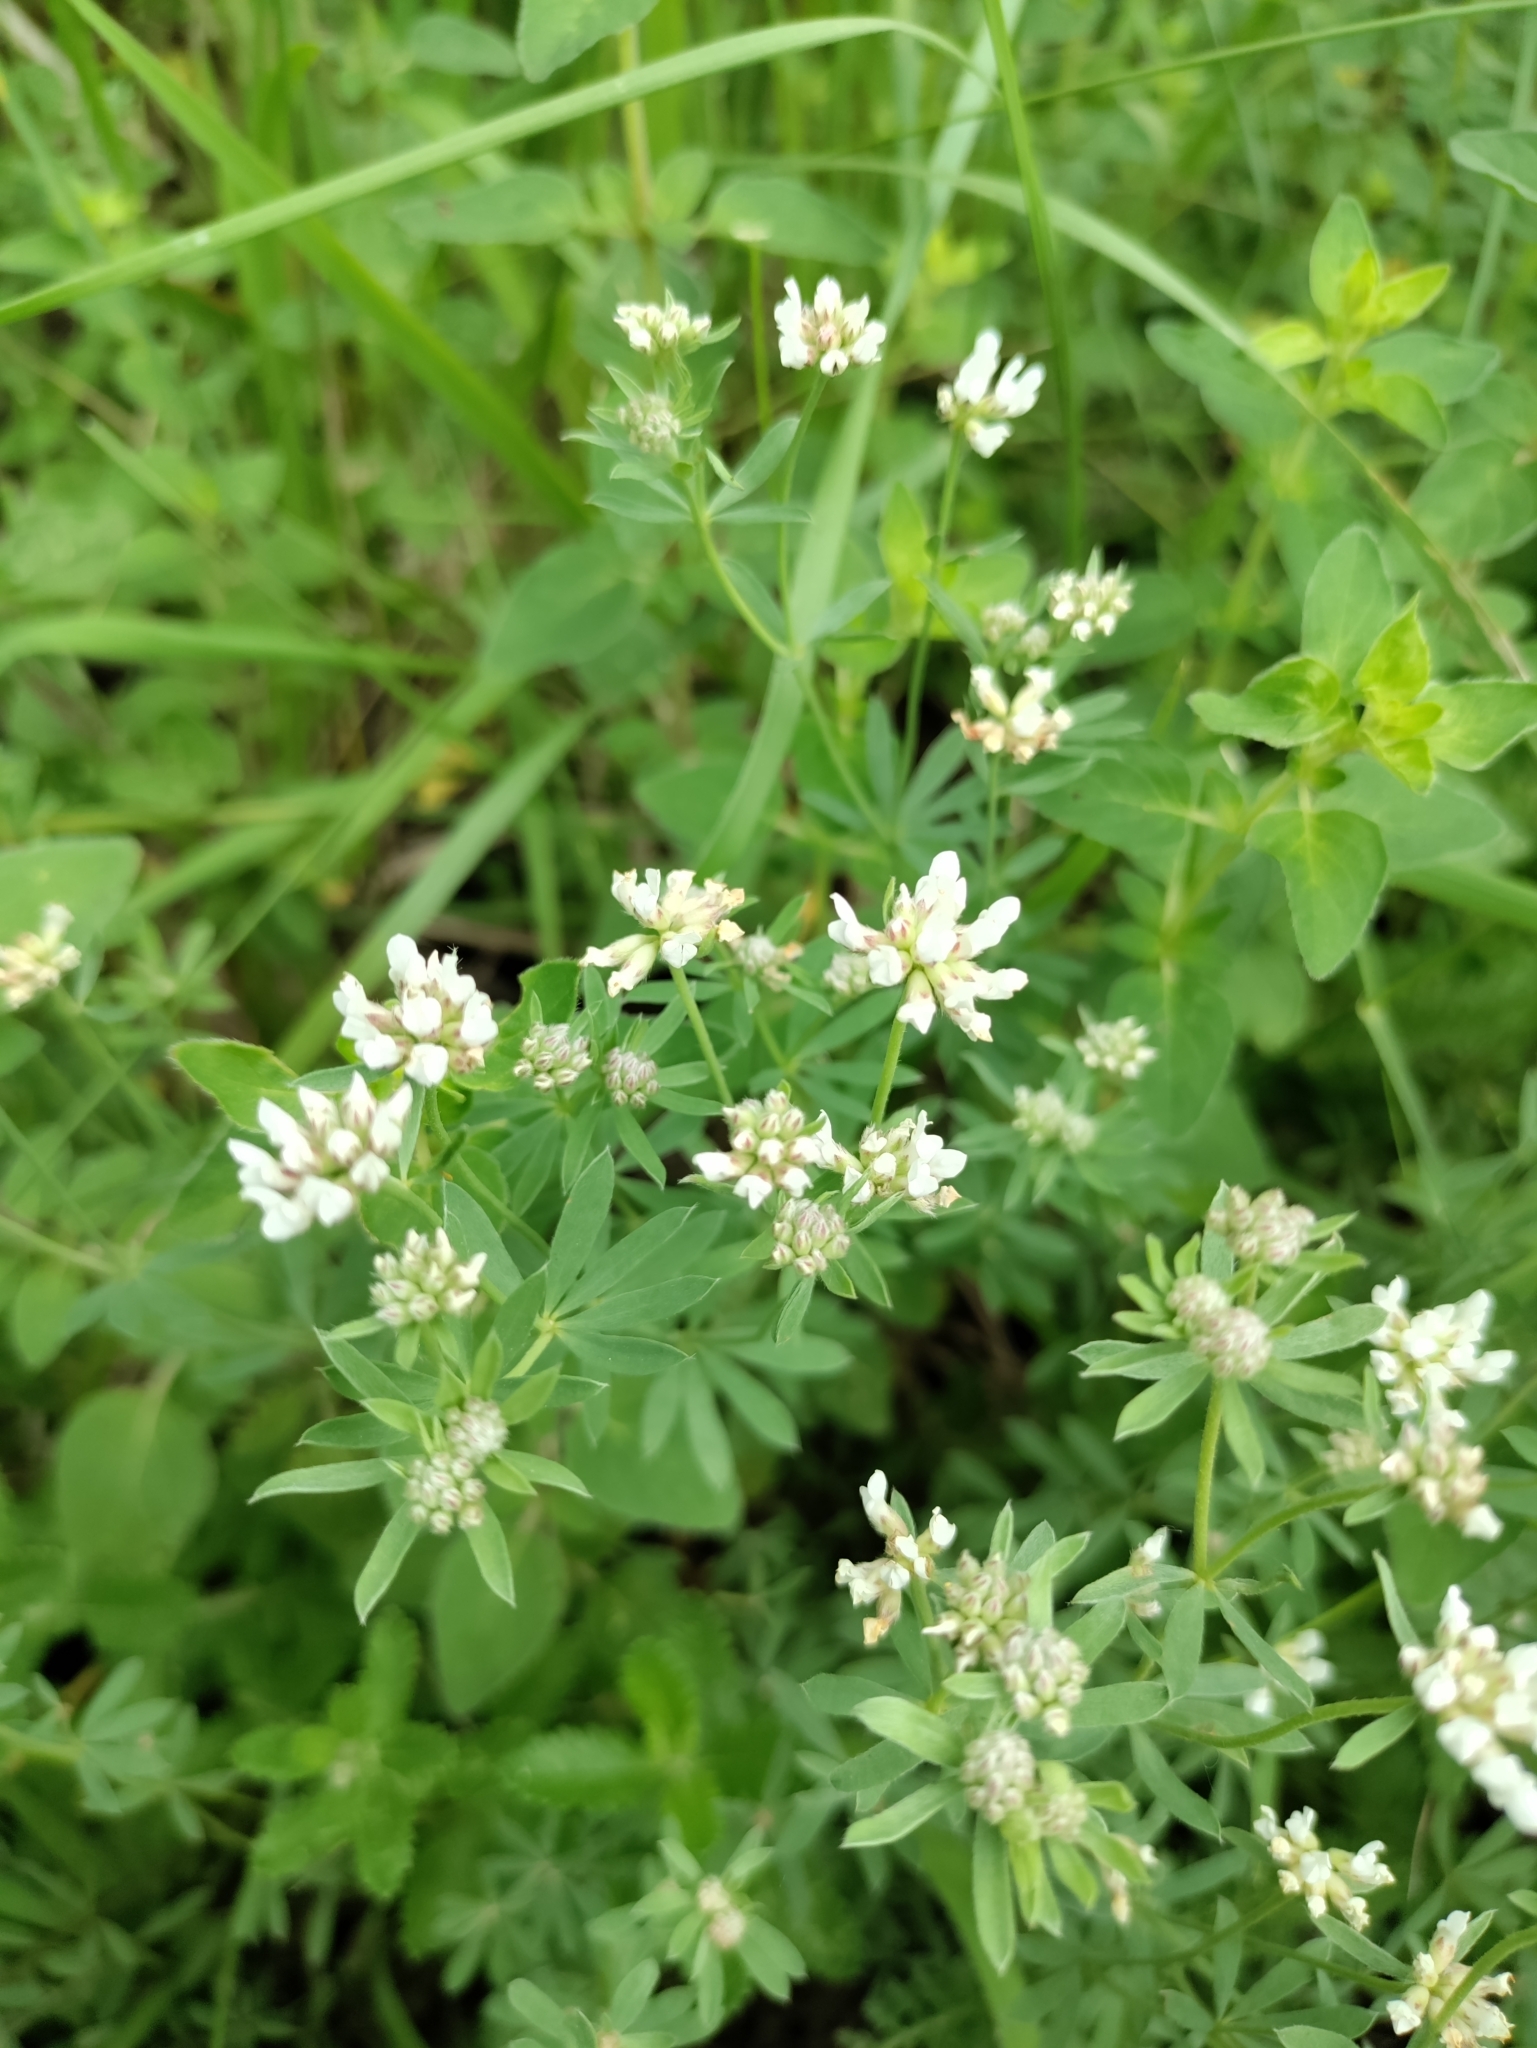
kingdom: Plantae
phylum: Tracheophyta
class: Magnoliopsida
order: Fabales
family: Fabaceae
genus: Lotus
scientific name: Lotus germanicus
